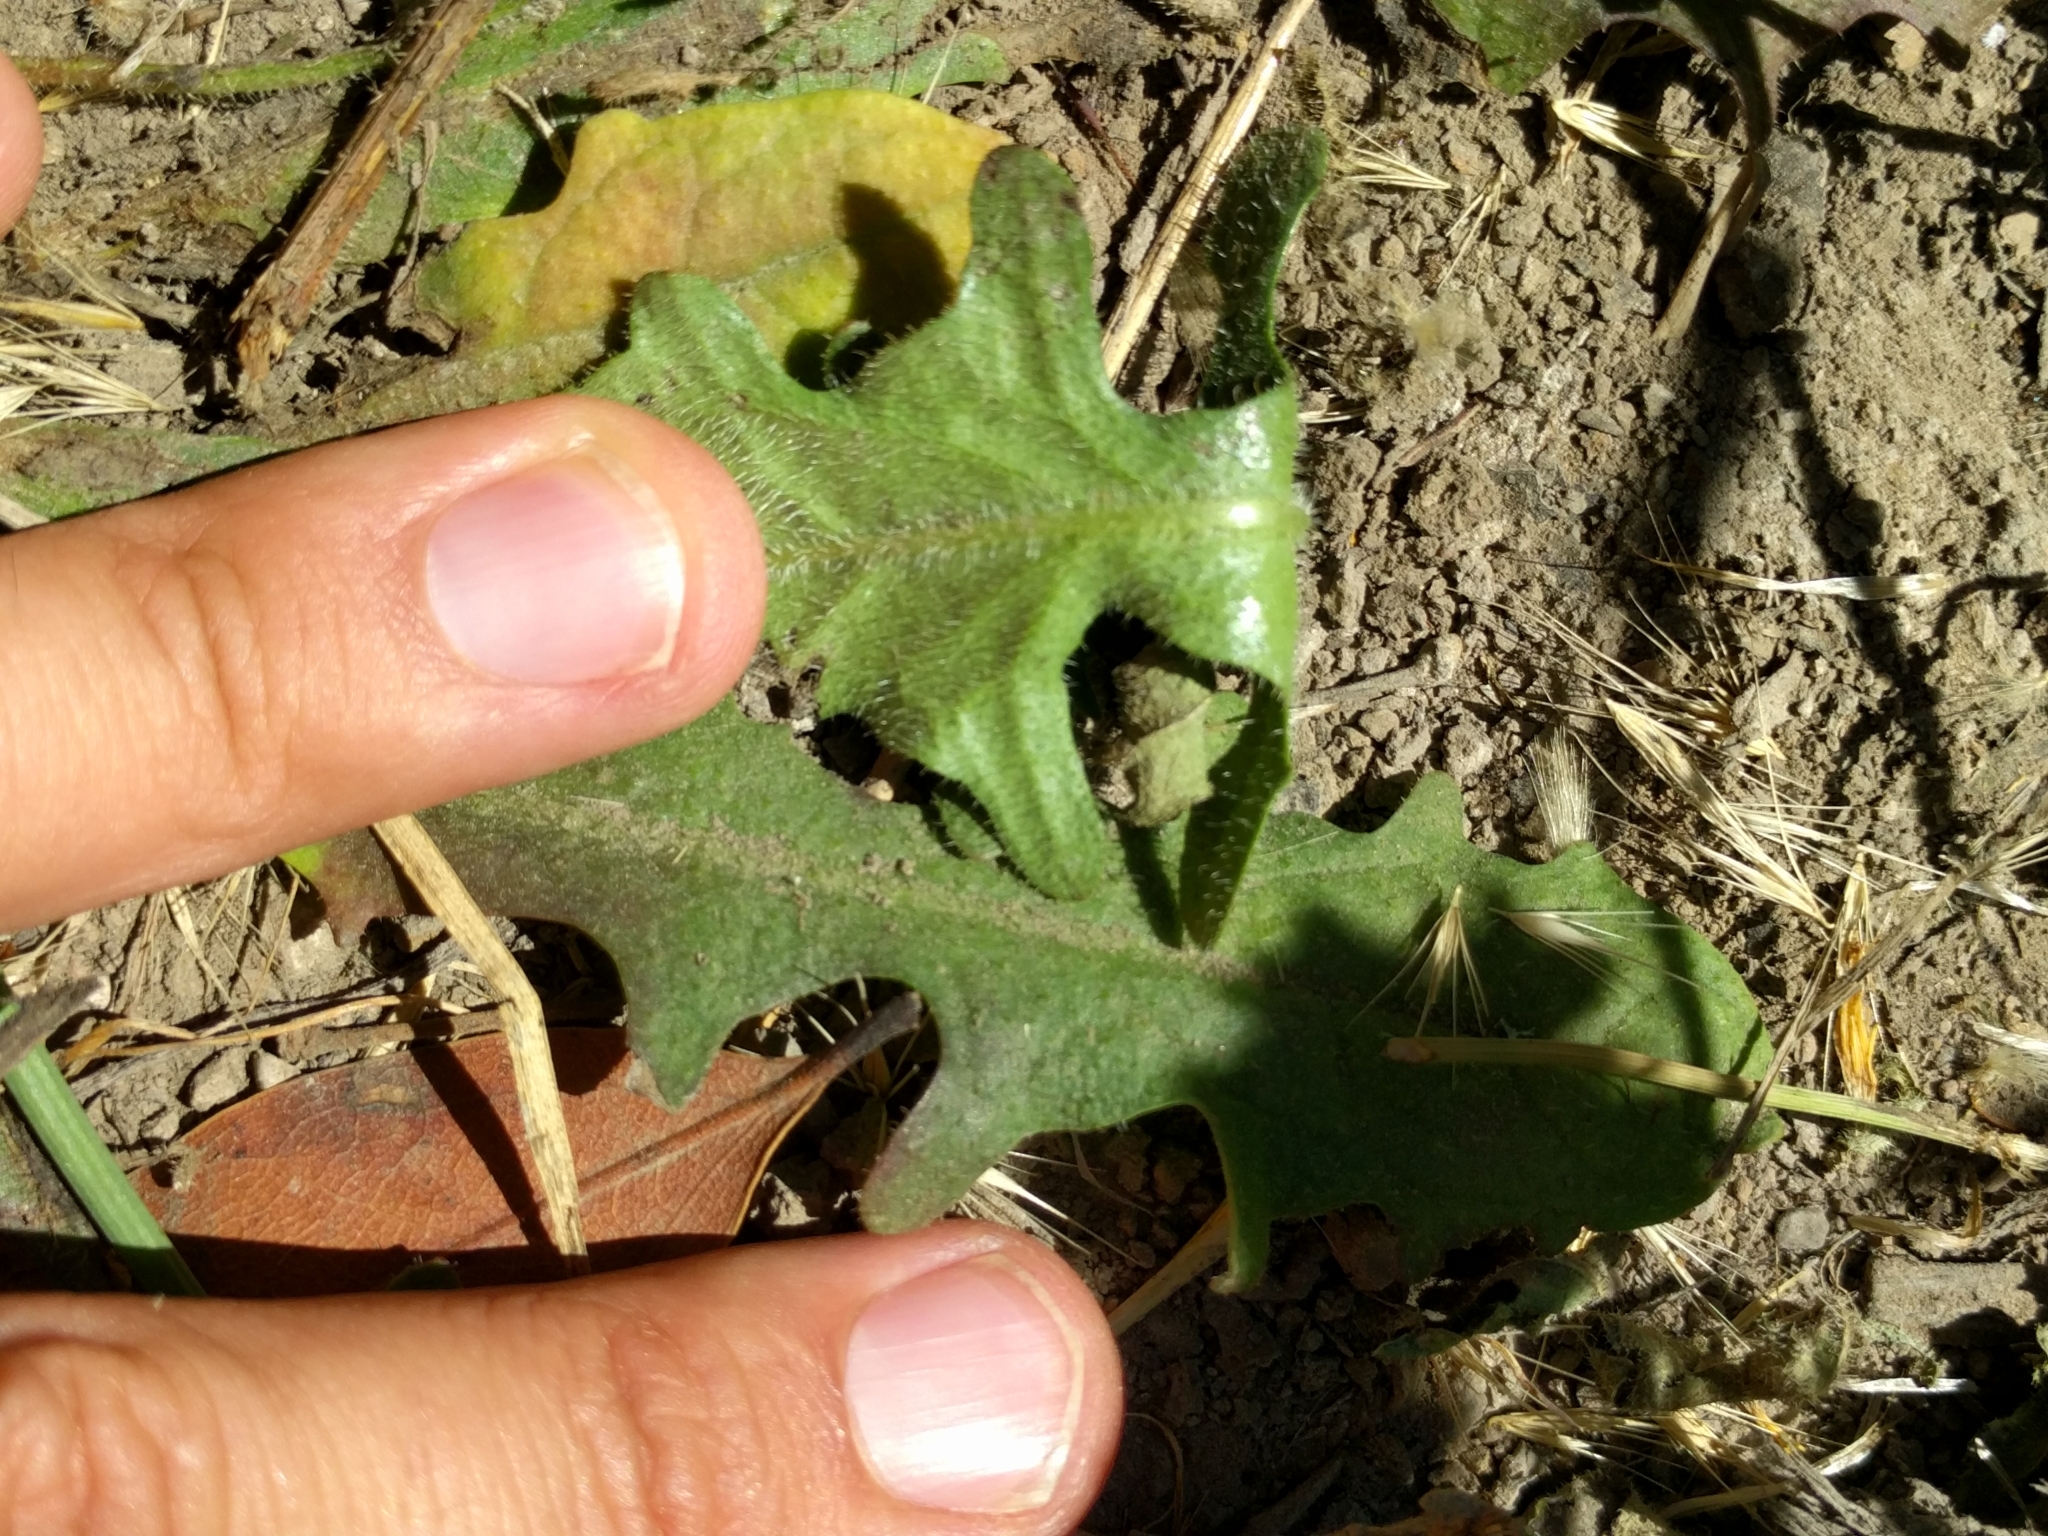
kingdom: Plantae
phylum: Tracheophyta
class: Magnoliopsida
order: Asterales
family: Asteraceae
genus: Hypochaeris
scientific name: Hypochaeris radicata
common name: Flatweed
